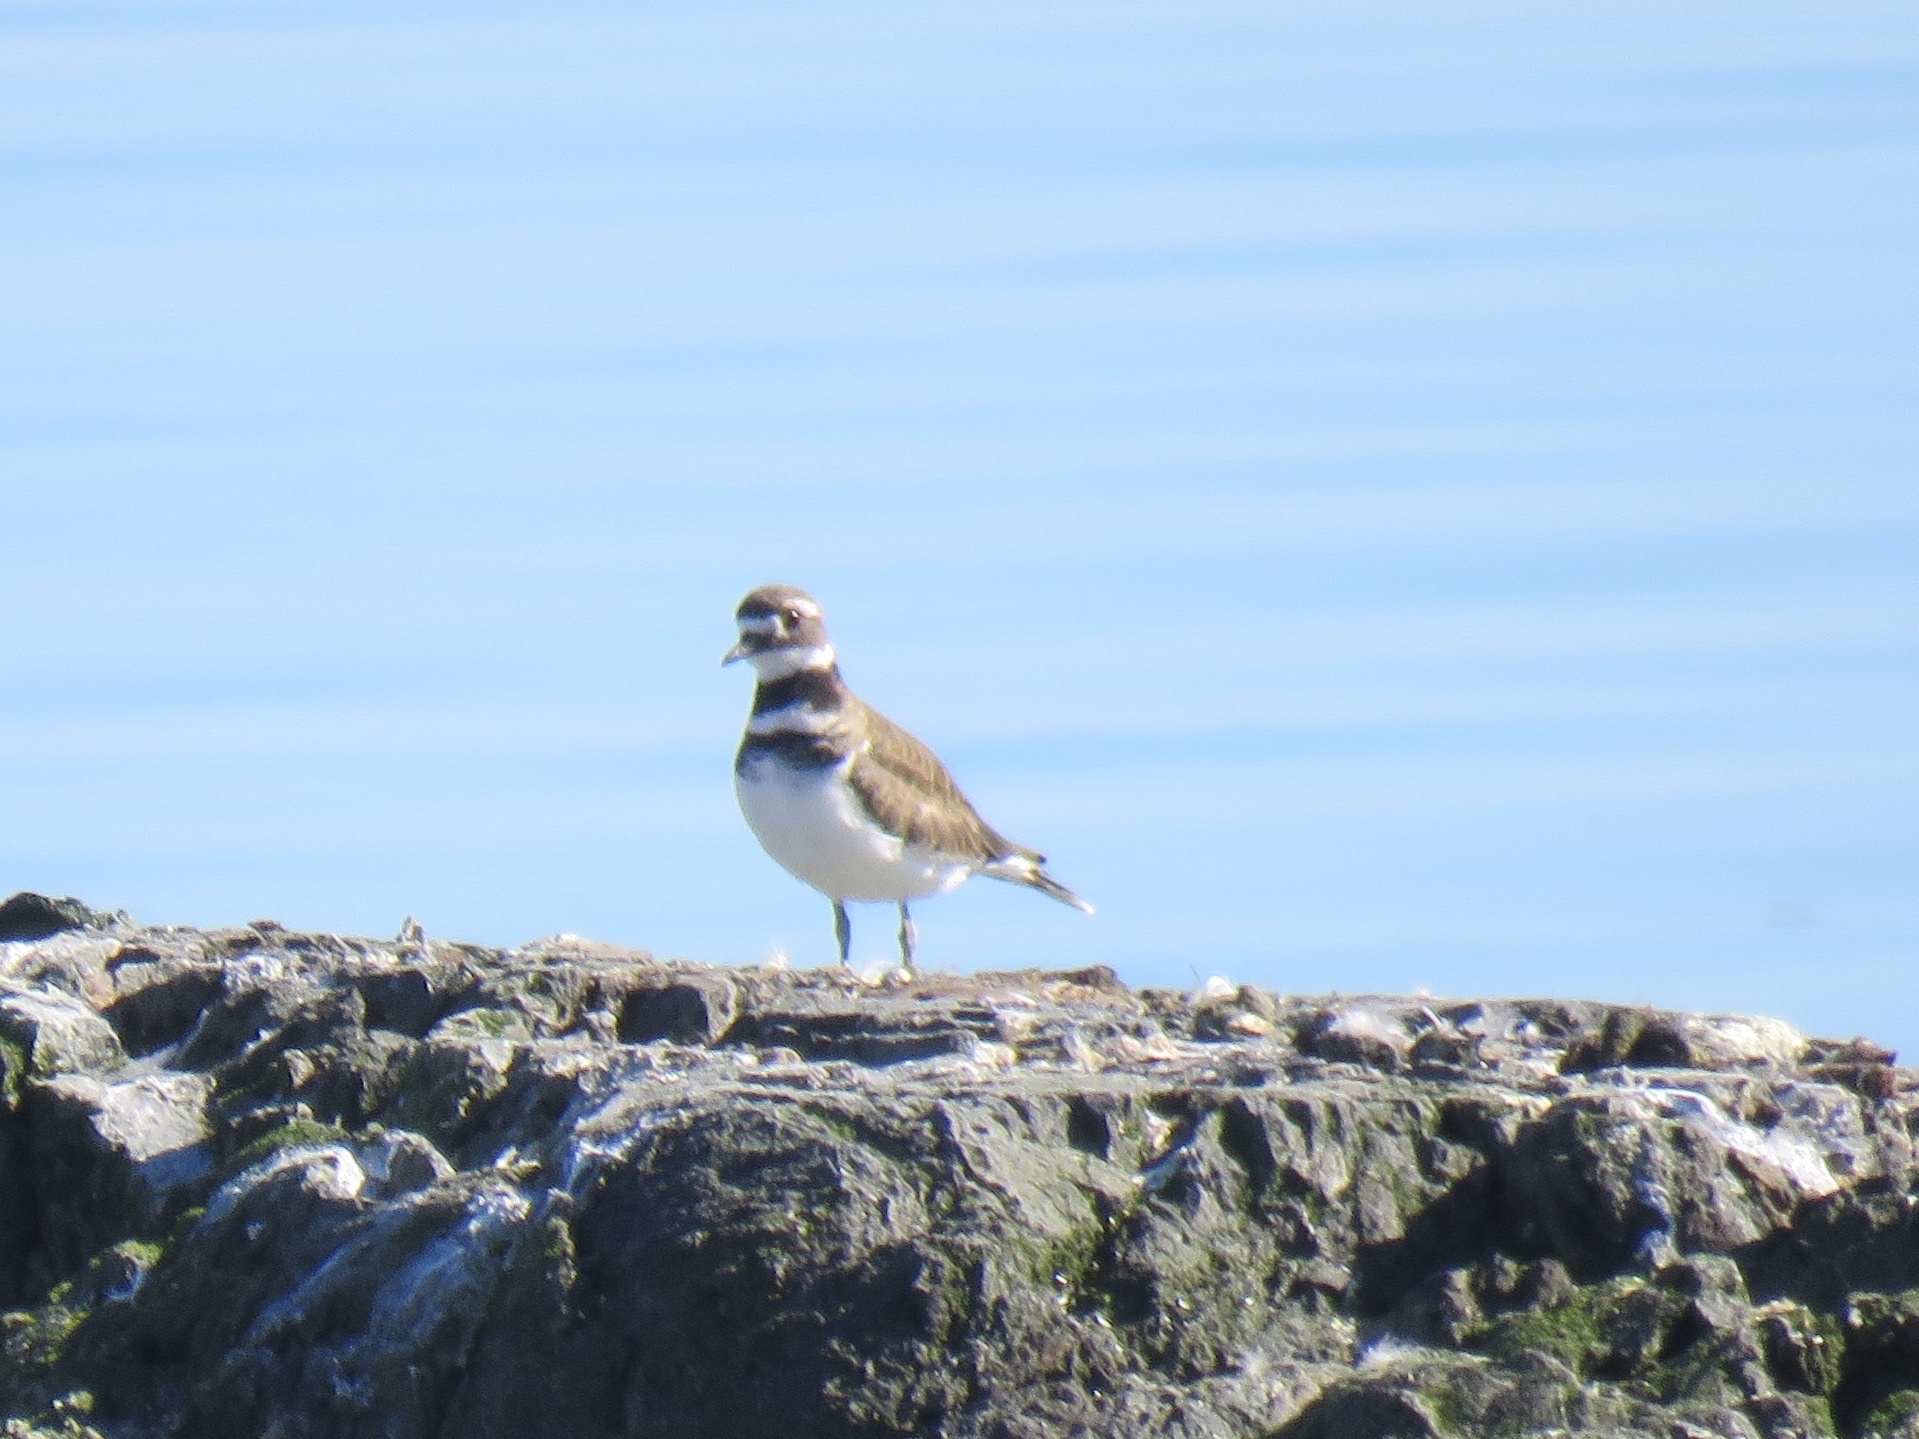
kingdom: Animalia
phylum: Chordata
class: Aves
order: Charadriiformes
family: Charadriidae
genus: Charadrius
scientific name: Charadrius vociferus
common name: Killdeer
